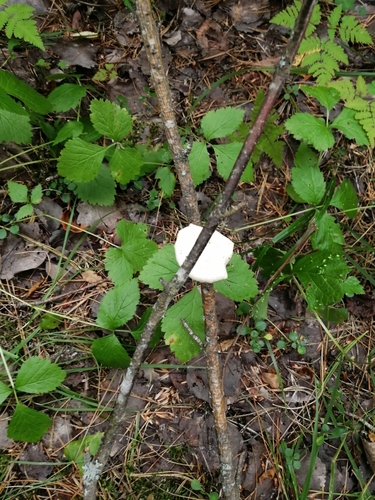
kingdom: Fungi
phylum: Basidiomycota
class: Agaricomycetes
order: Agaricales
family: Pleurotaceae
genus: Pleurotus
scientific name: Pleurotus pulmonarius
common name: Pale oyster
